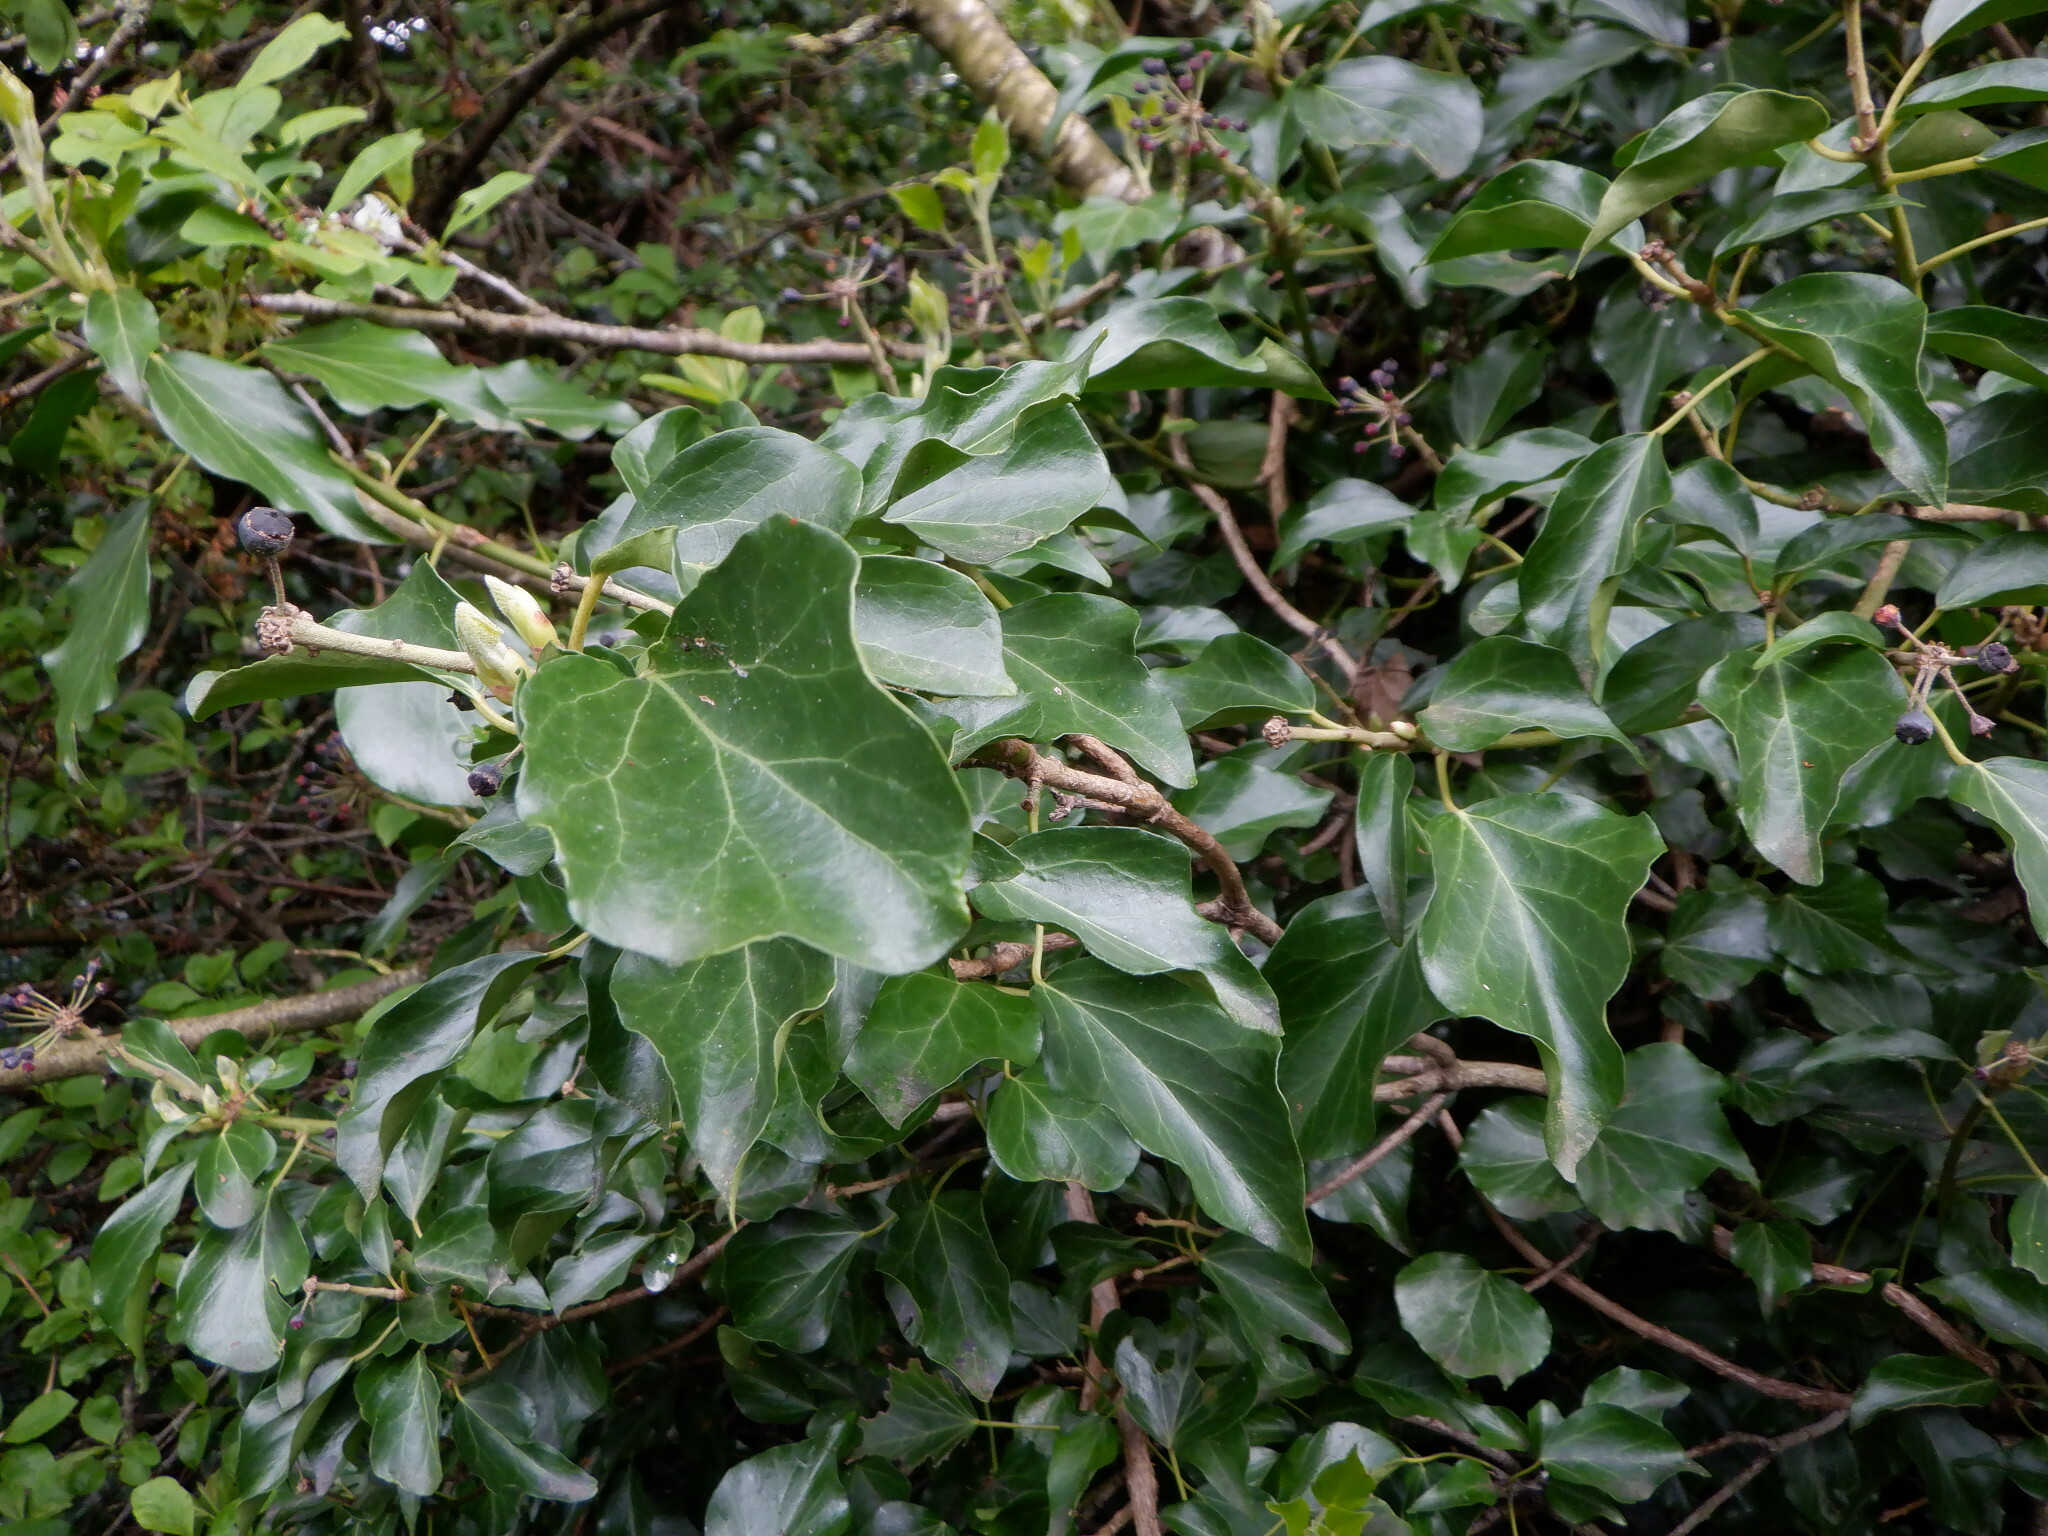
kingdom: Plantae
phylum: Tracheophyta
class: Magnoliopsida
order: Apiales
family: Araliaceae
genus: Hedera
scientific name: Hedera helix
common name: Ivy
